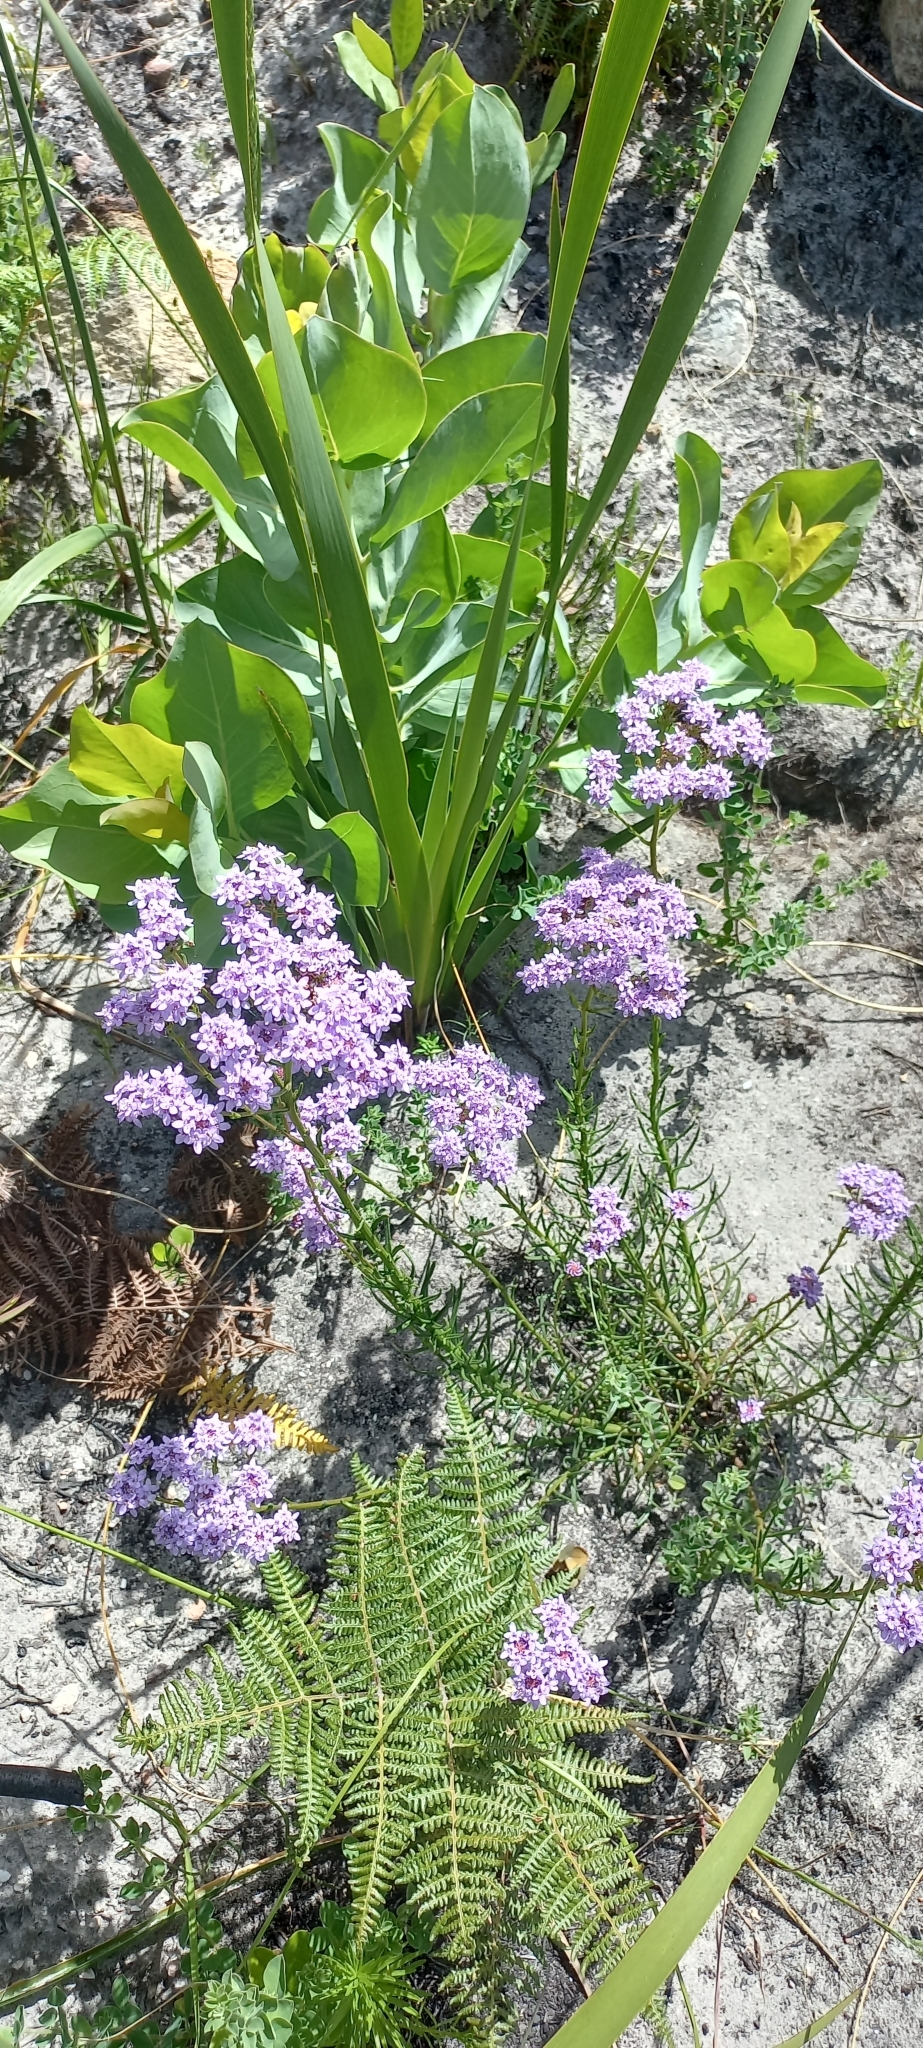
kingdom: Plantae
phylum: Tracheophyta
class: Magnoliopsida
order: Lamiales
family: Scrophulariaceae
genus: Pseudoselago
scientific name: Pseudoselago spuria
